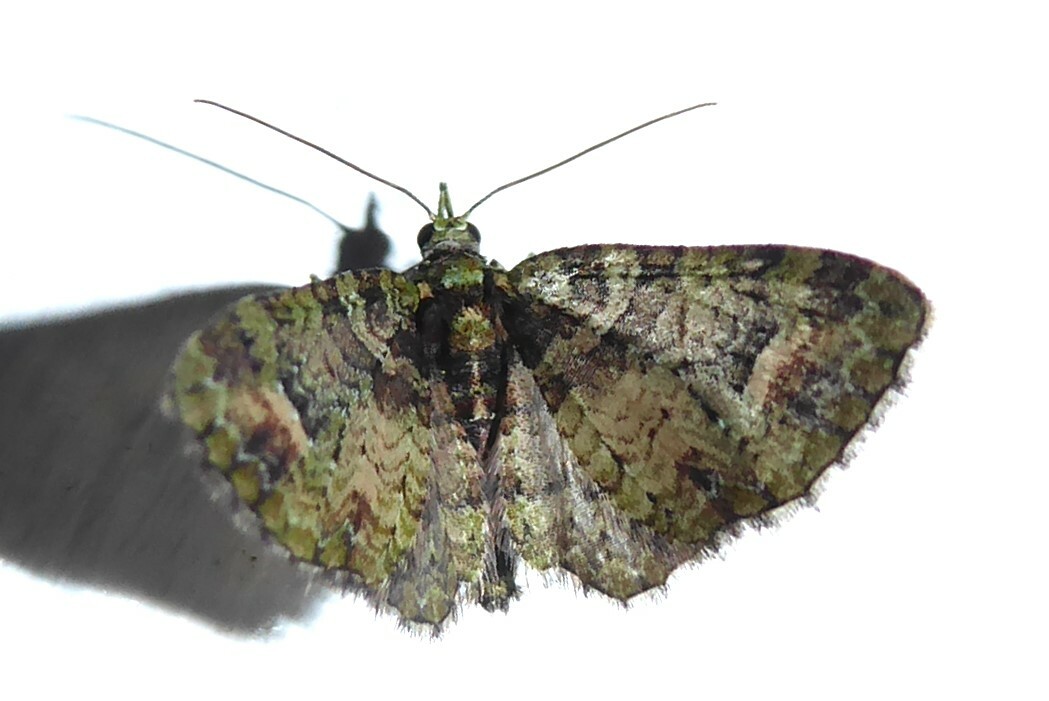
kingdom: Animalia
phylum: Arthropoda
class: Insecta
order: Lepidoptera
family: Geometridae
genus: Idaea
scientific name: Idaea mutanda
